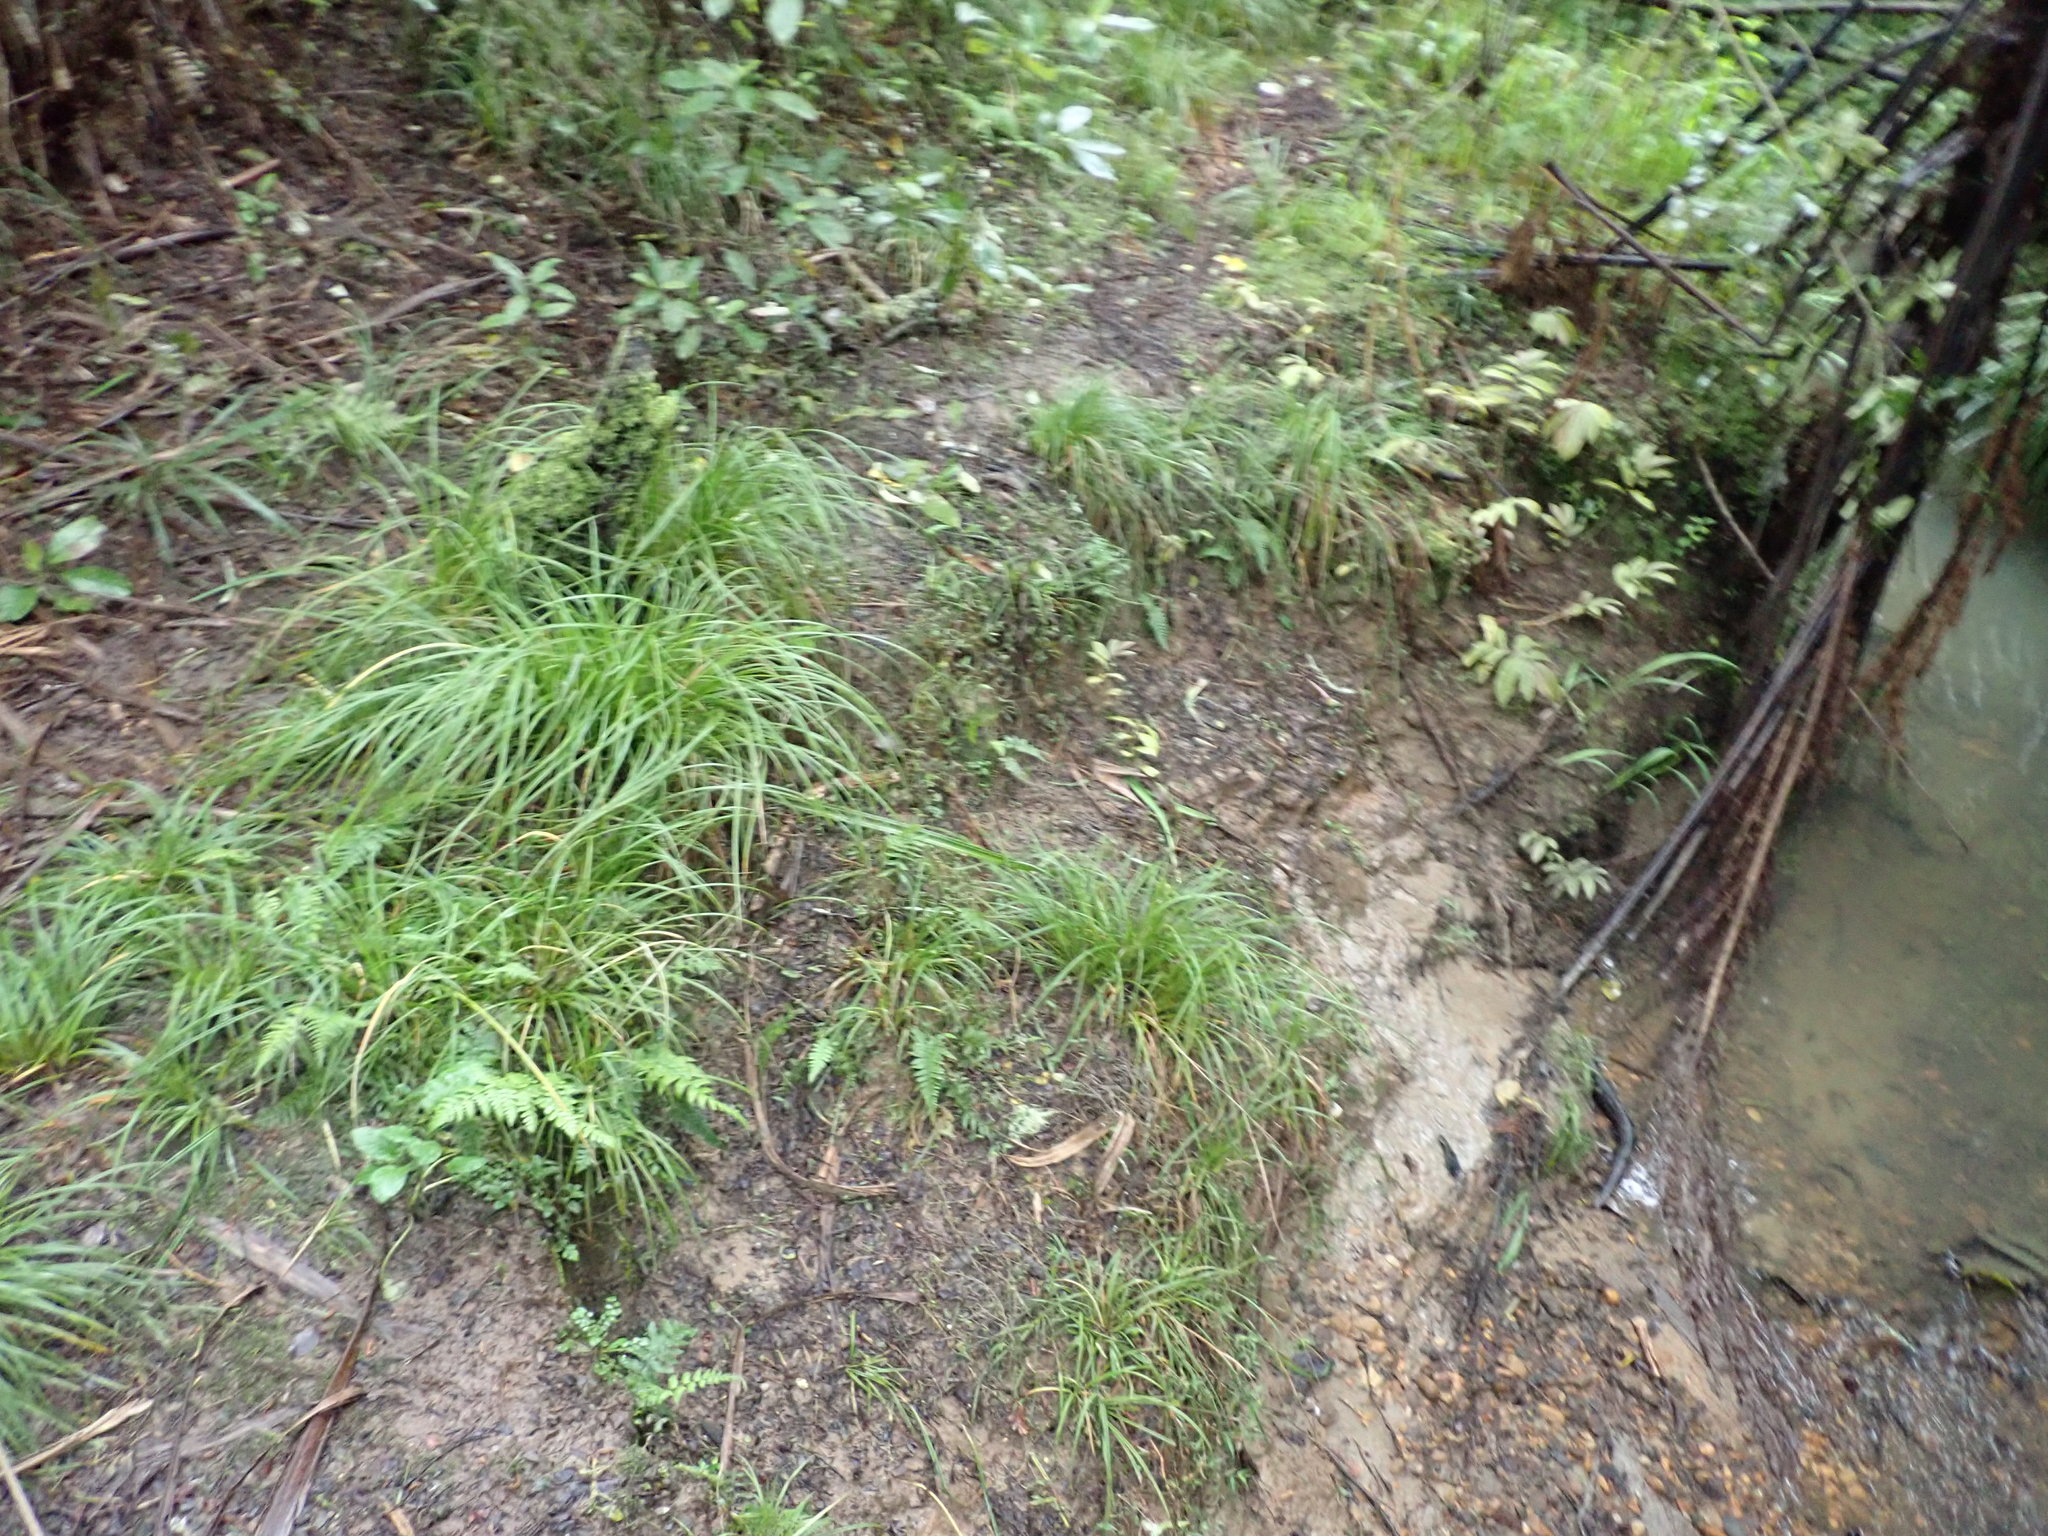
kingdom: Plantae
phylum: Tracheophyta
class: Magnoliopsida
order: Rosales
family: Urticaceae
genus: Elatostema
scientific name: Elatostema rugosum
